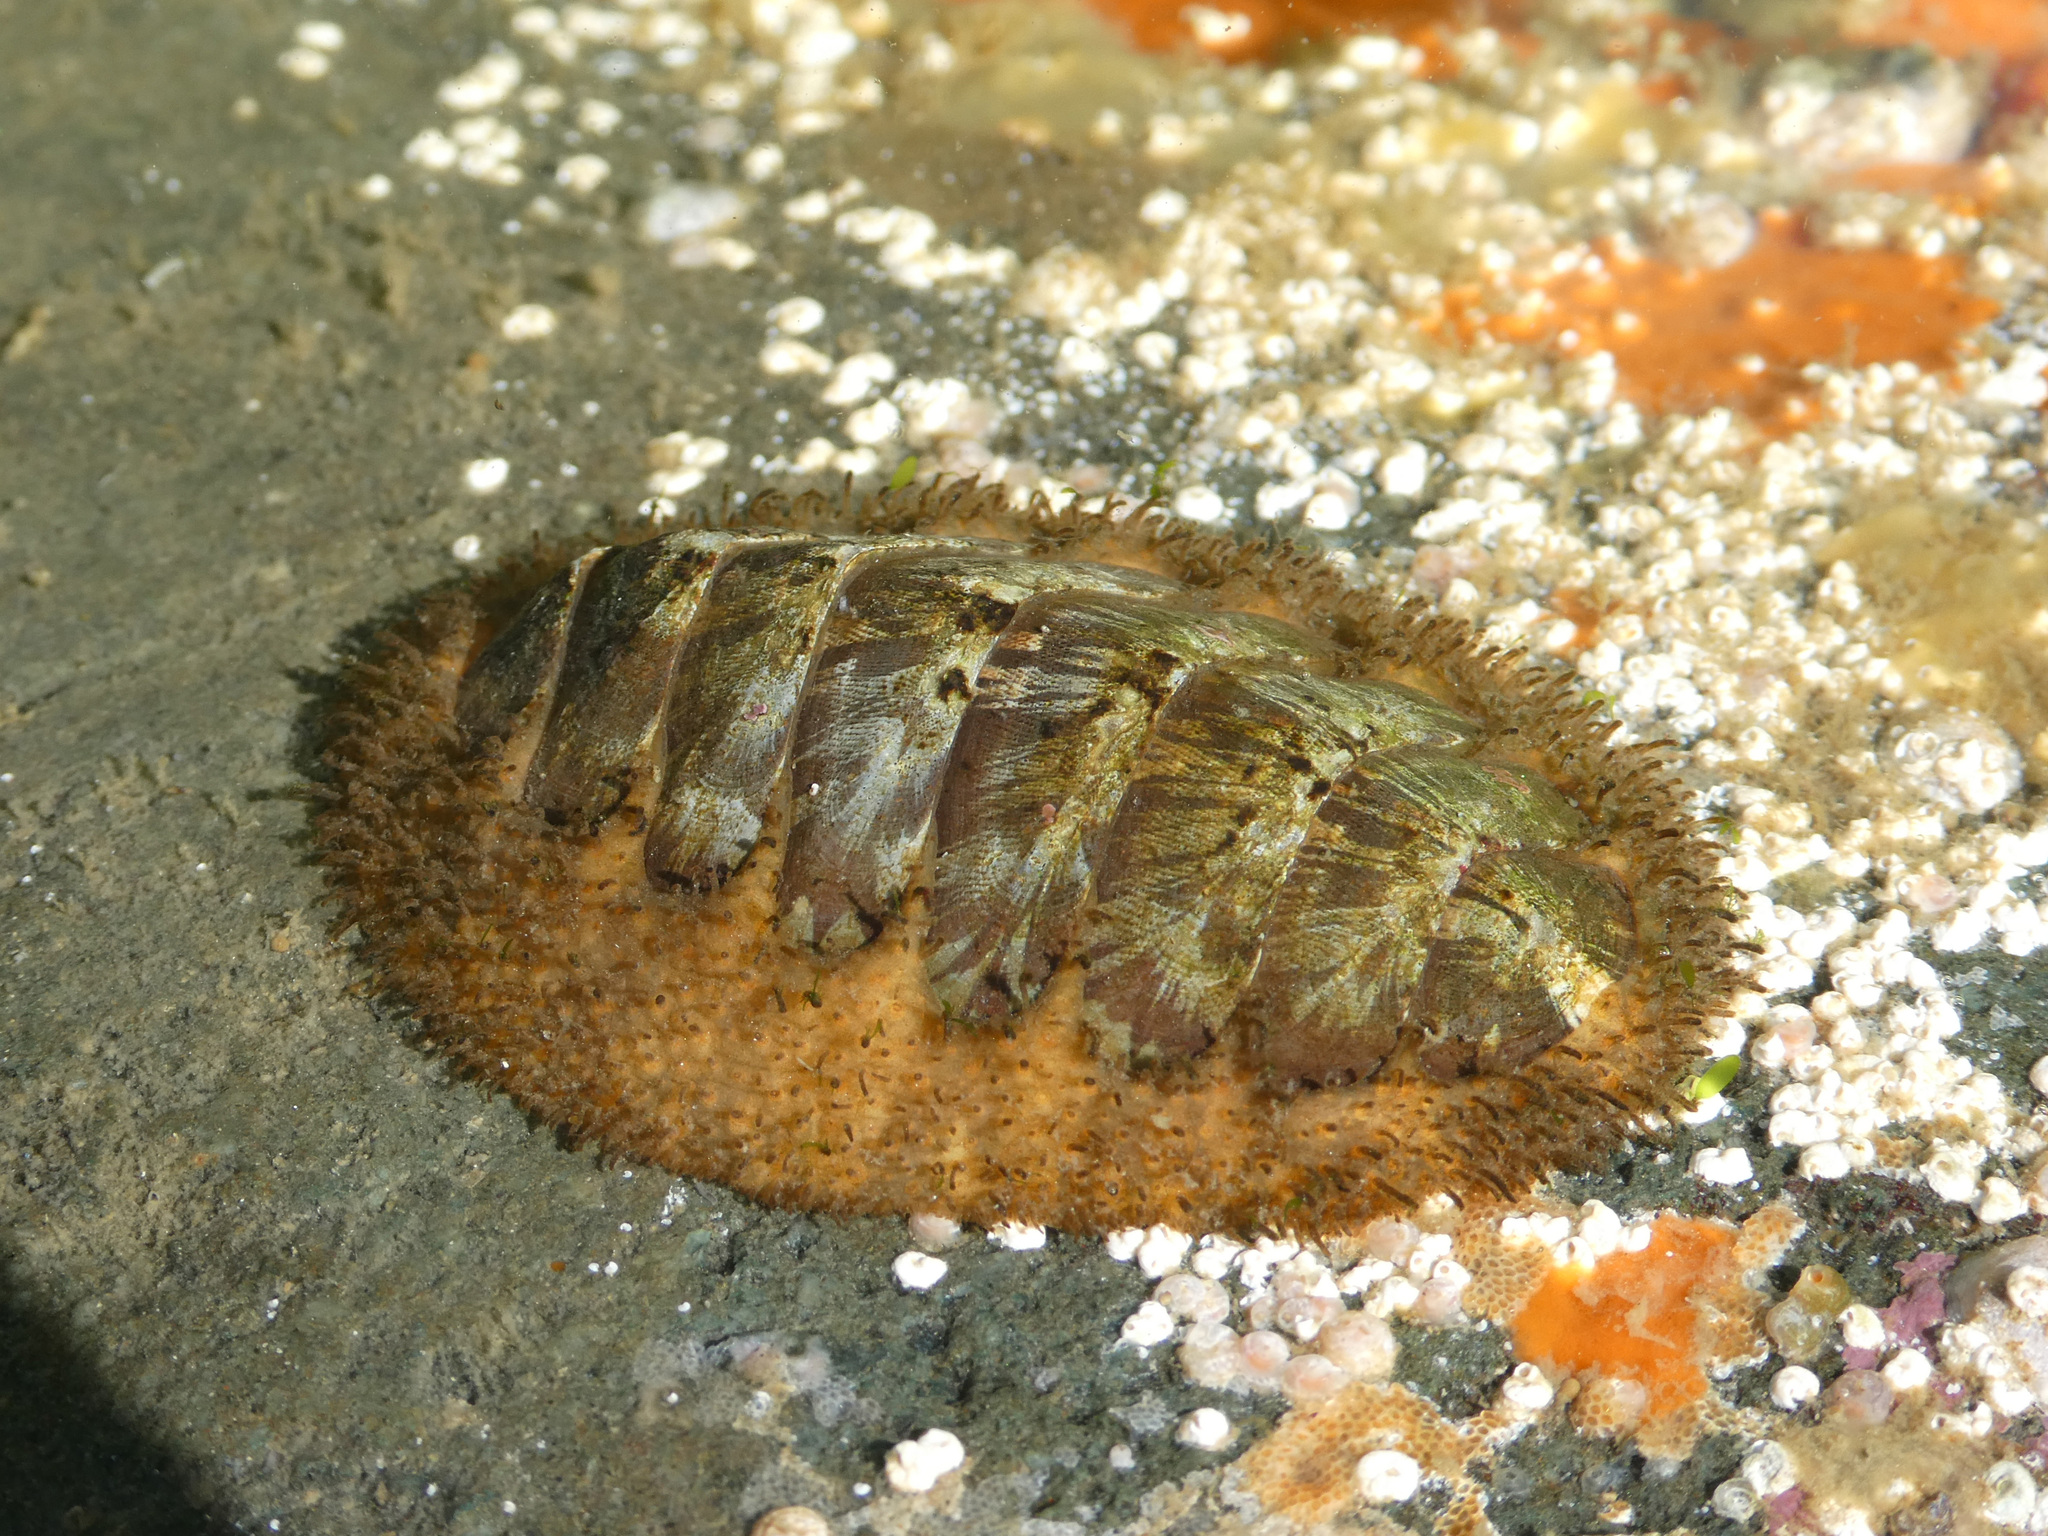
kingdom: Animalia
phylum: Mollusca
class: Polyplacophora
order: Chitonida
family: Mopaliidae
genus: Mopalia
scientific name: Mopalia lignosa
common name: Woody chiton
